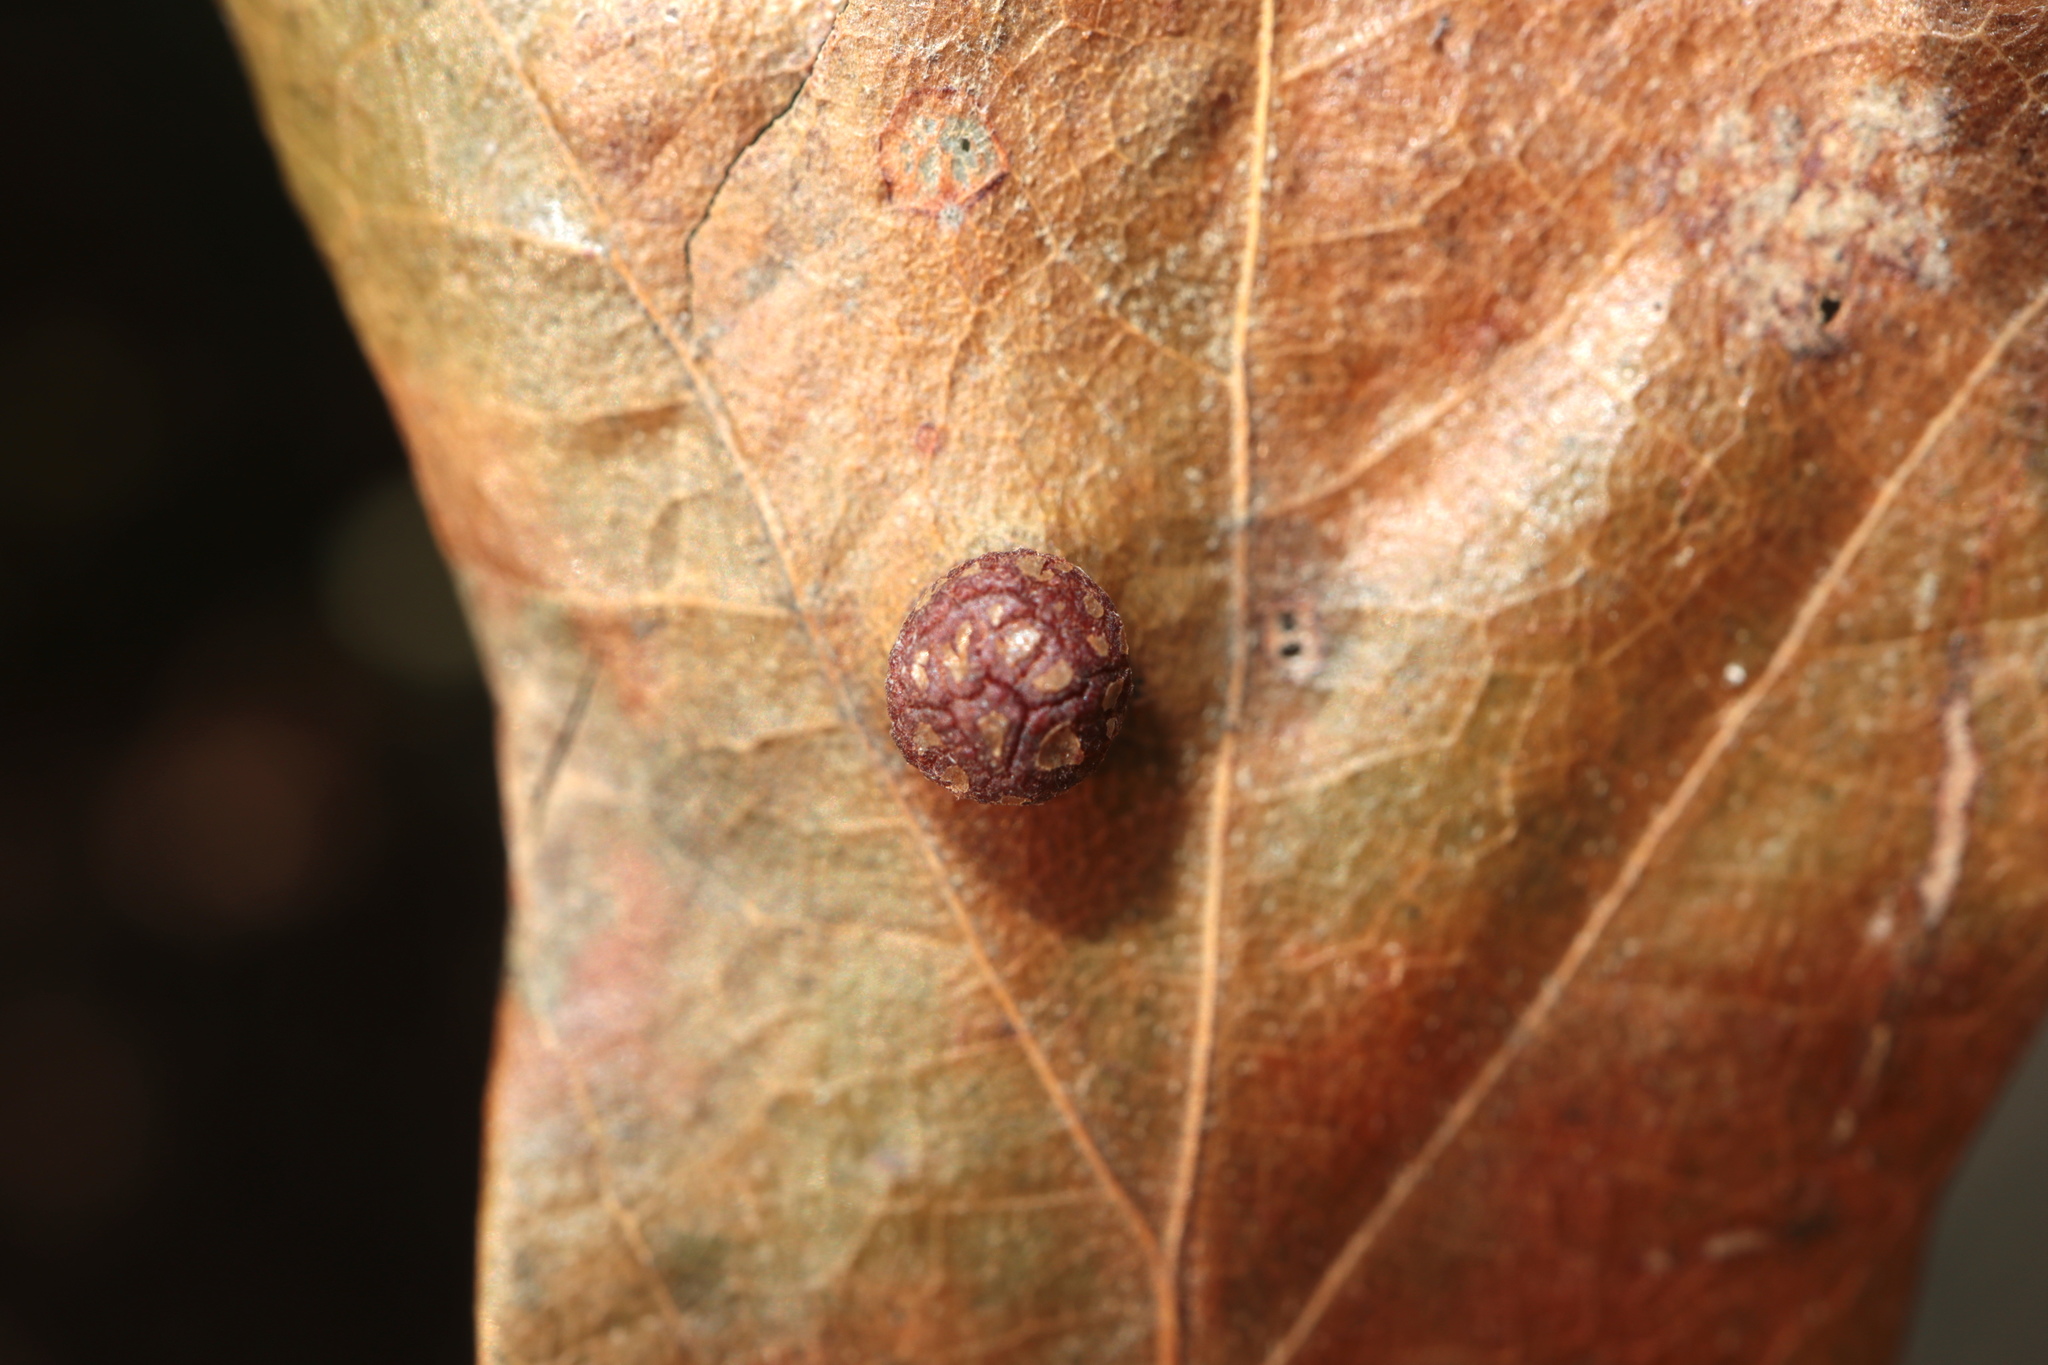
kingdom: Animalia
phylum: Arthropoda
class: Insecta
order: Diptera
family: Cecidomyiidae
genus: Polystepha
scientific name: Polystepha symmetrica
